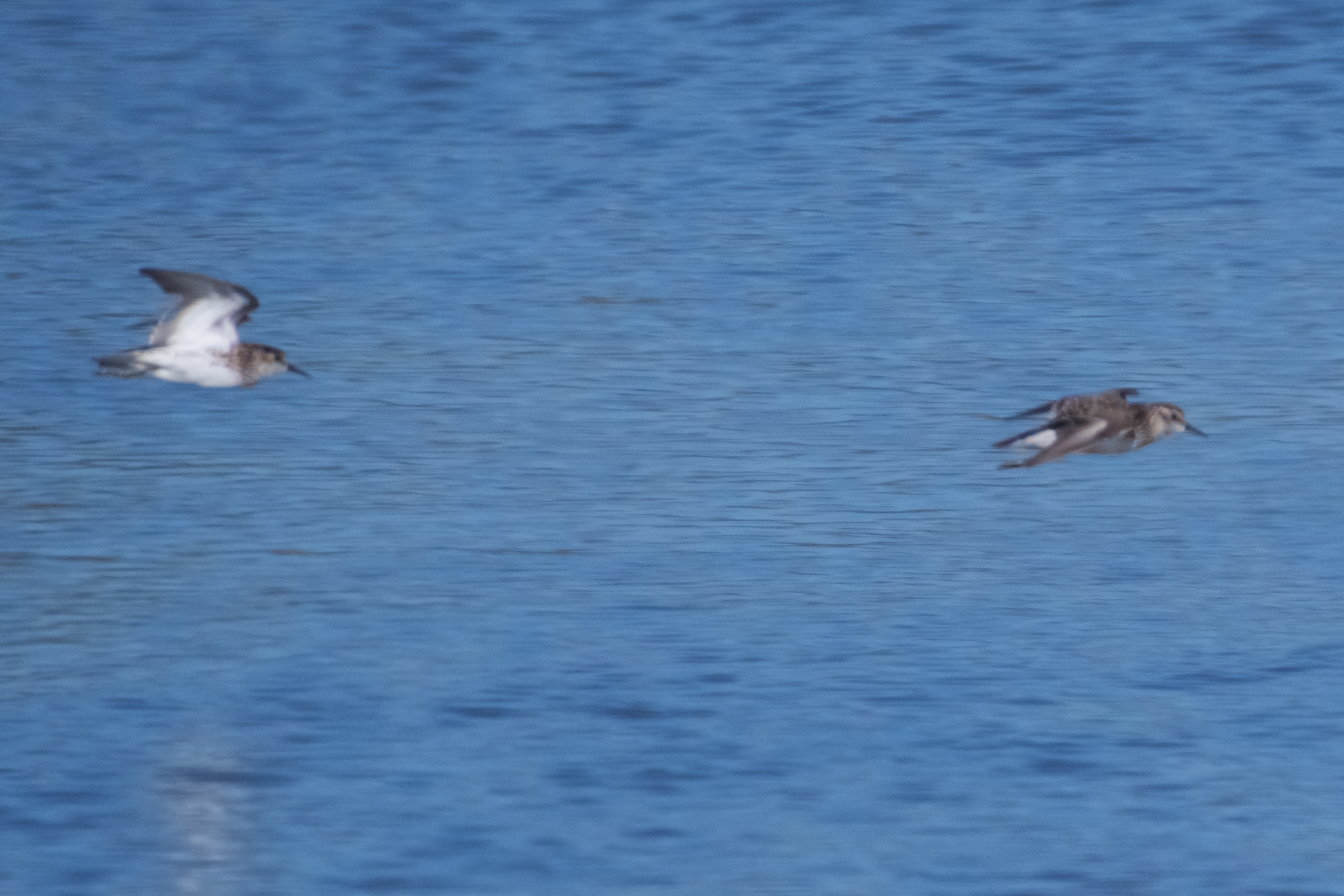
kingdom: Animalia
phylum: Chordata
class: Aves
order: Charadriiformes
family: Scolopacidae
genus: Calidris
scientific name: Calidris minutilla
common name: Least sandpiper
